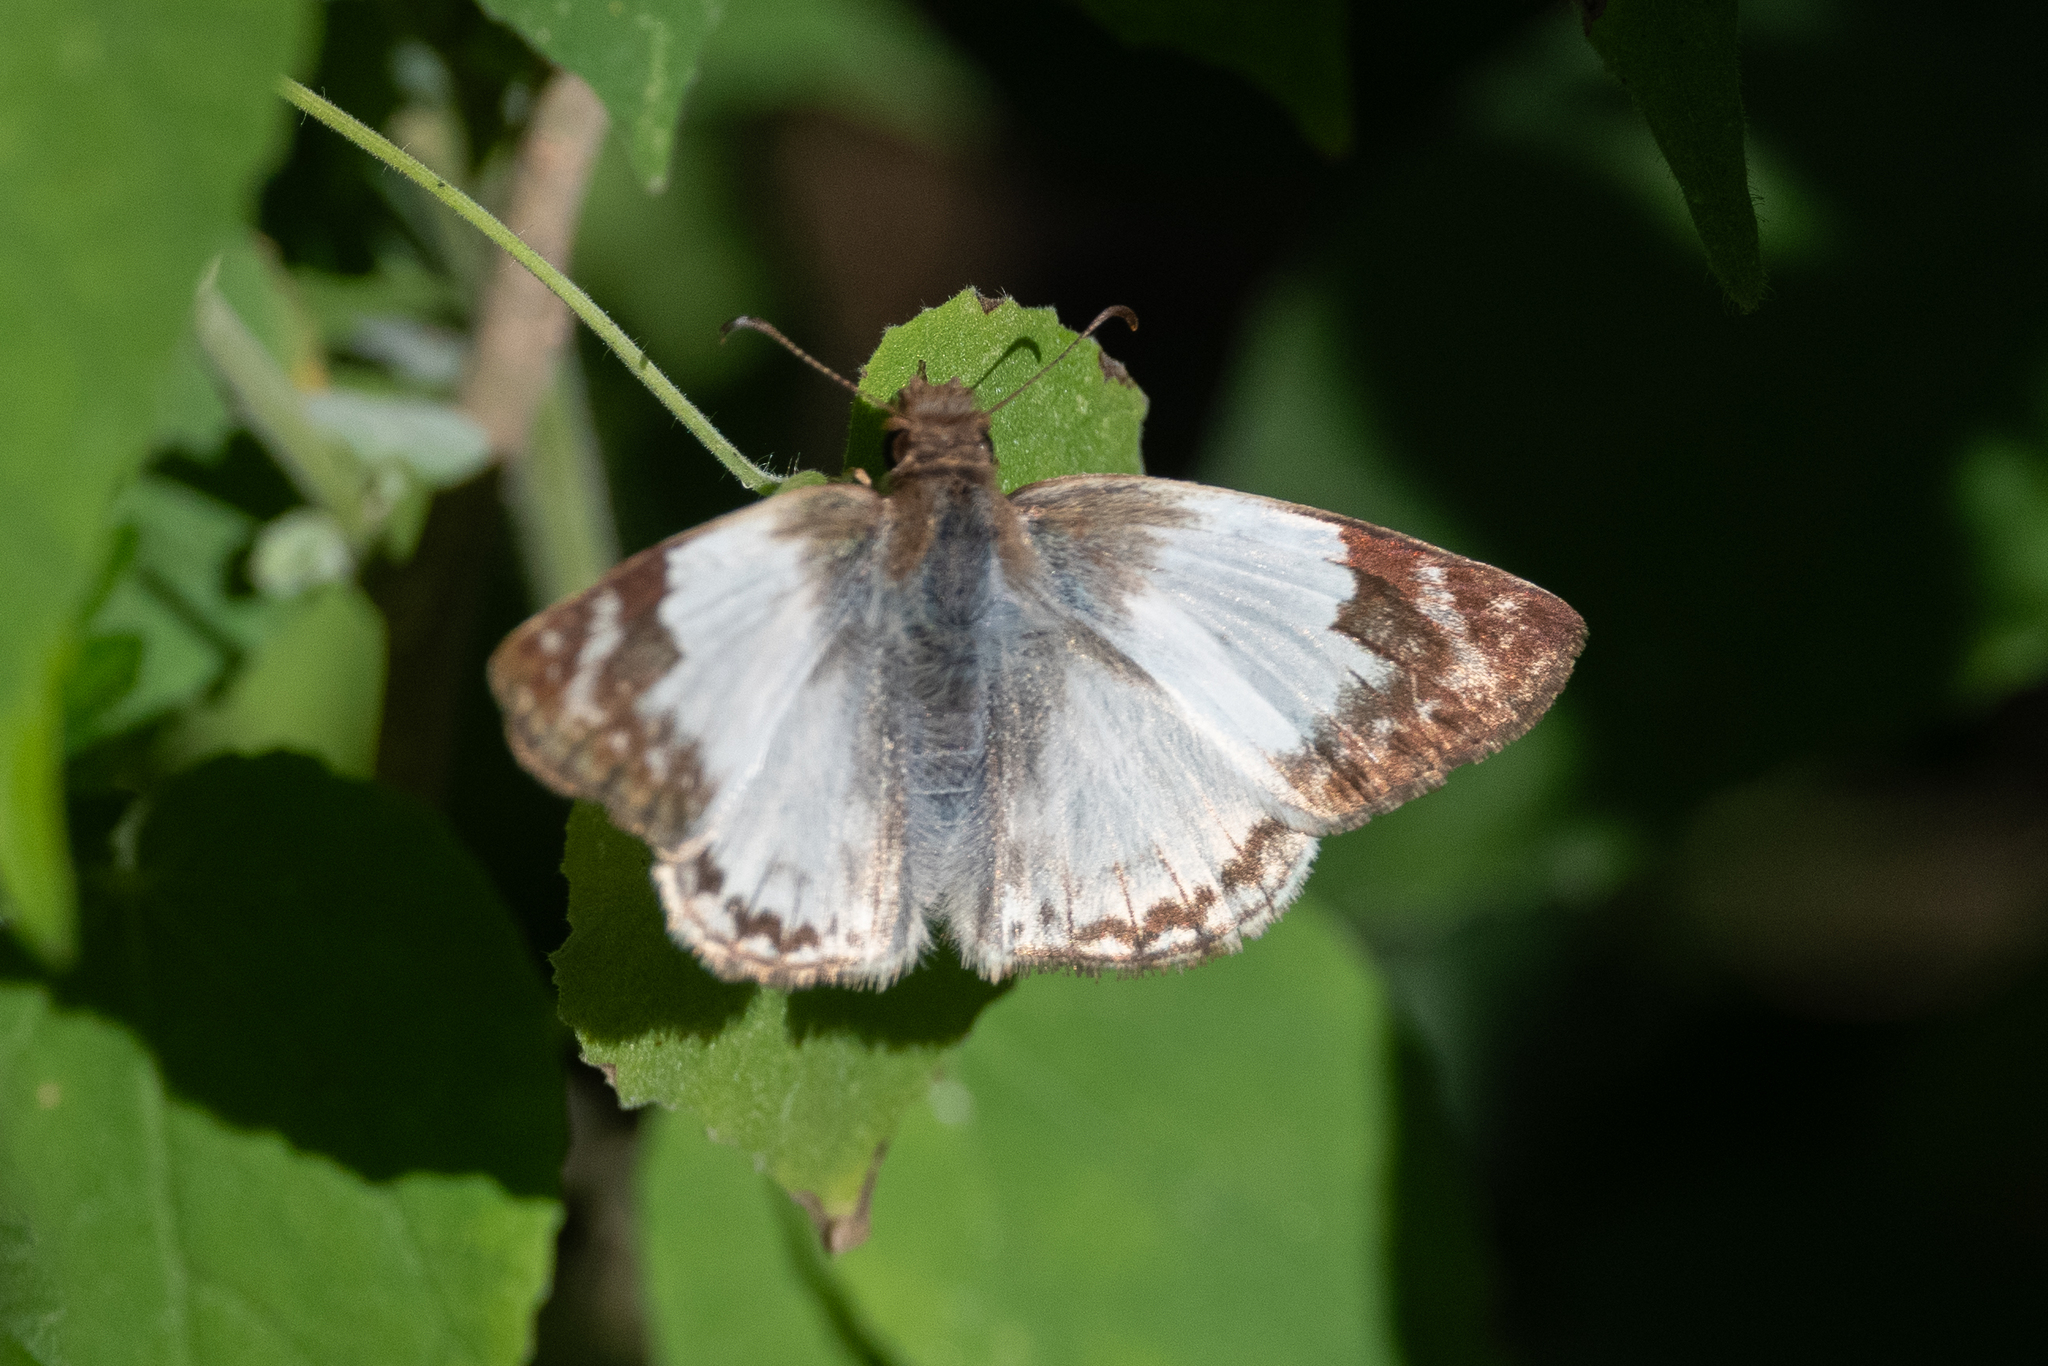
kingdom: Animalia
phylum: Arthropoda
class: Insecta
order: Lepidoptera
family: Hesperiidae
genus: Heliopetes
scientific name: Heliopetes laviana
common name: Laviana white-skipper
